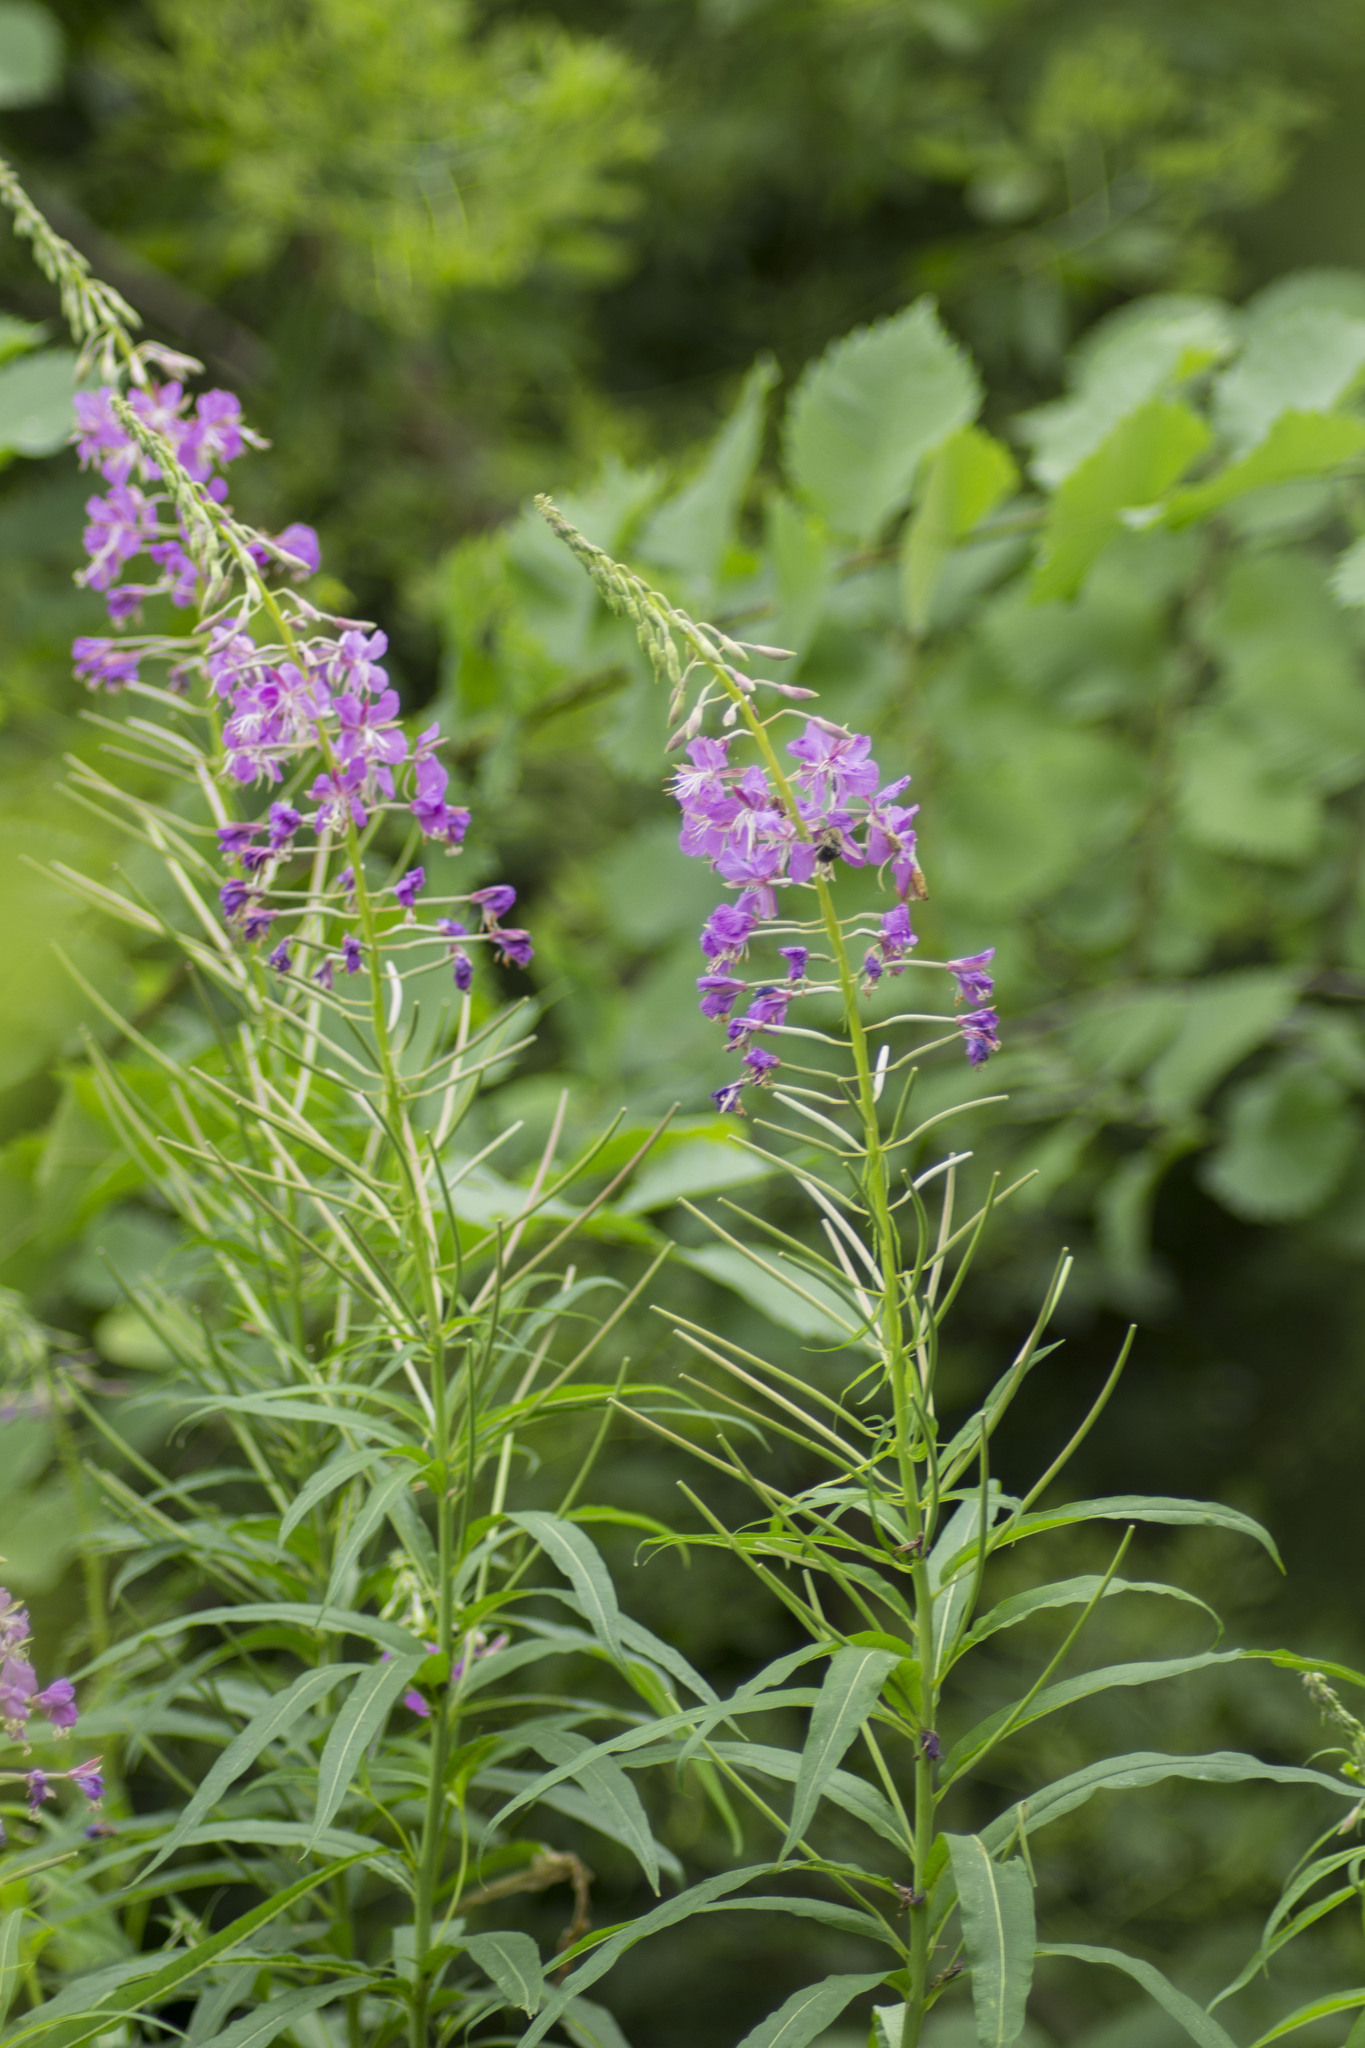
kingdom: Plantae
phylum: Tracheophyta
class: Magnoliopsida
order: Myrtales
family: Onagraceae
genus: Chamaenerion
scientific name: Chamaenerion angustifolium
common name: Fireweed
